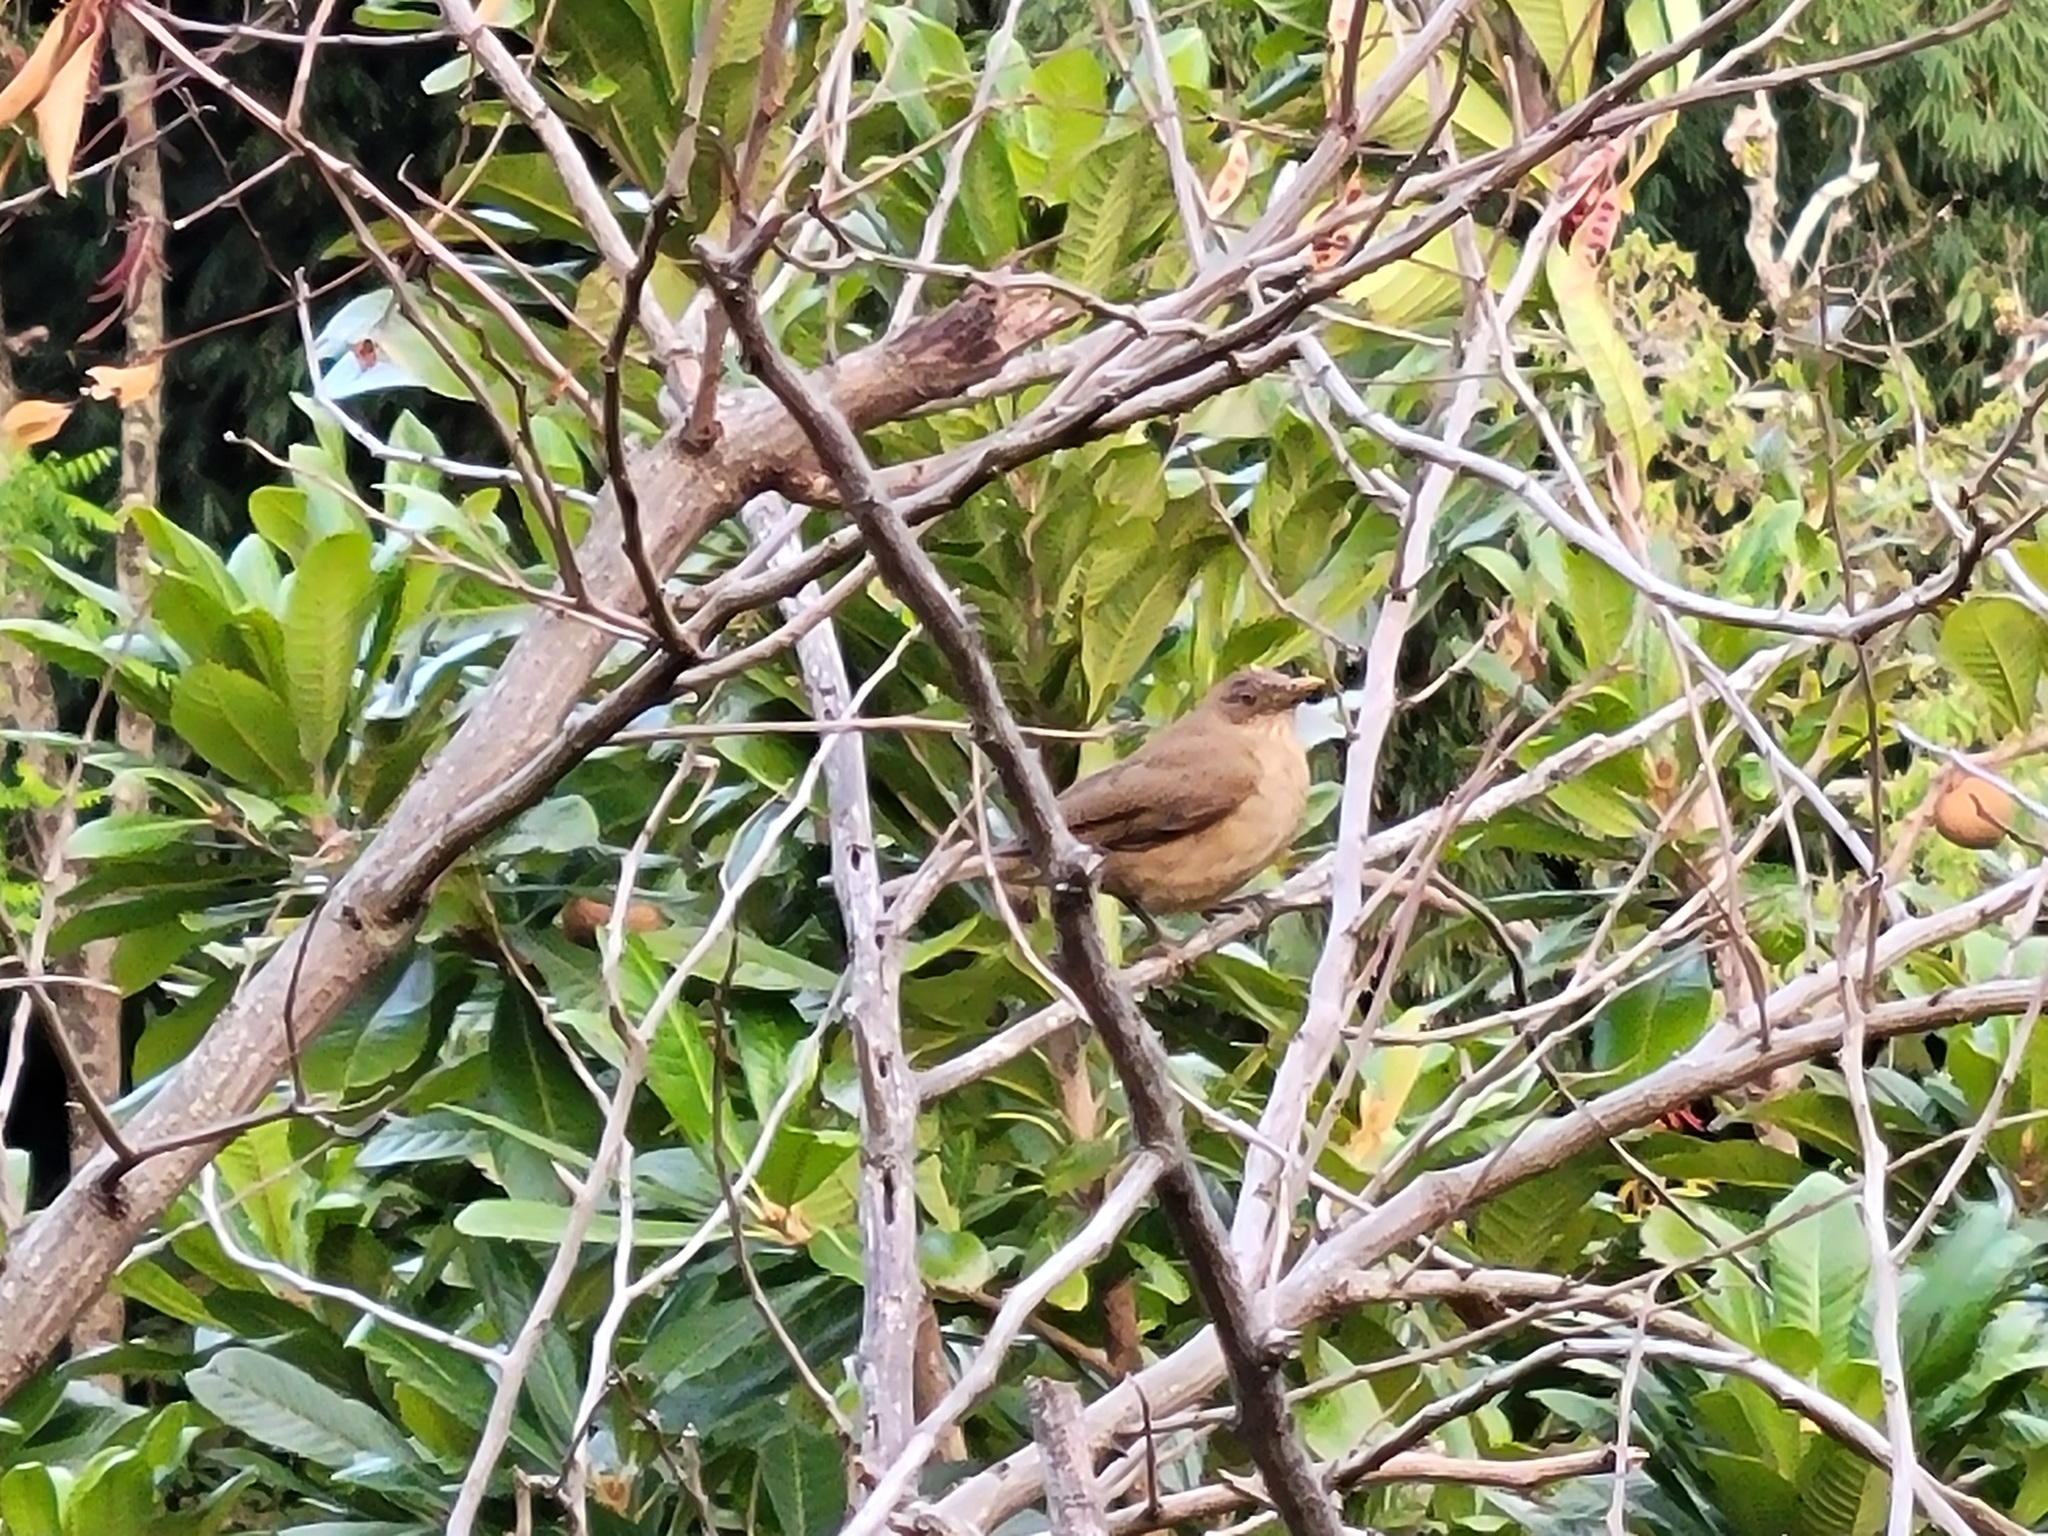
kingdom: Animalia
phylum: Chordata
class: Aves
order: Passeriformes
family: Turdidae
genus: Turdus
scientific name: Turdus grayi
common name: Clay-colored thrush
